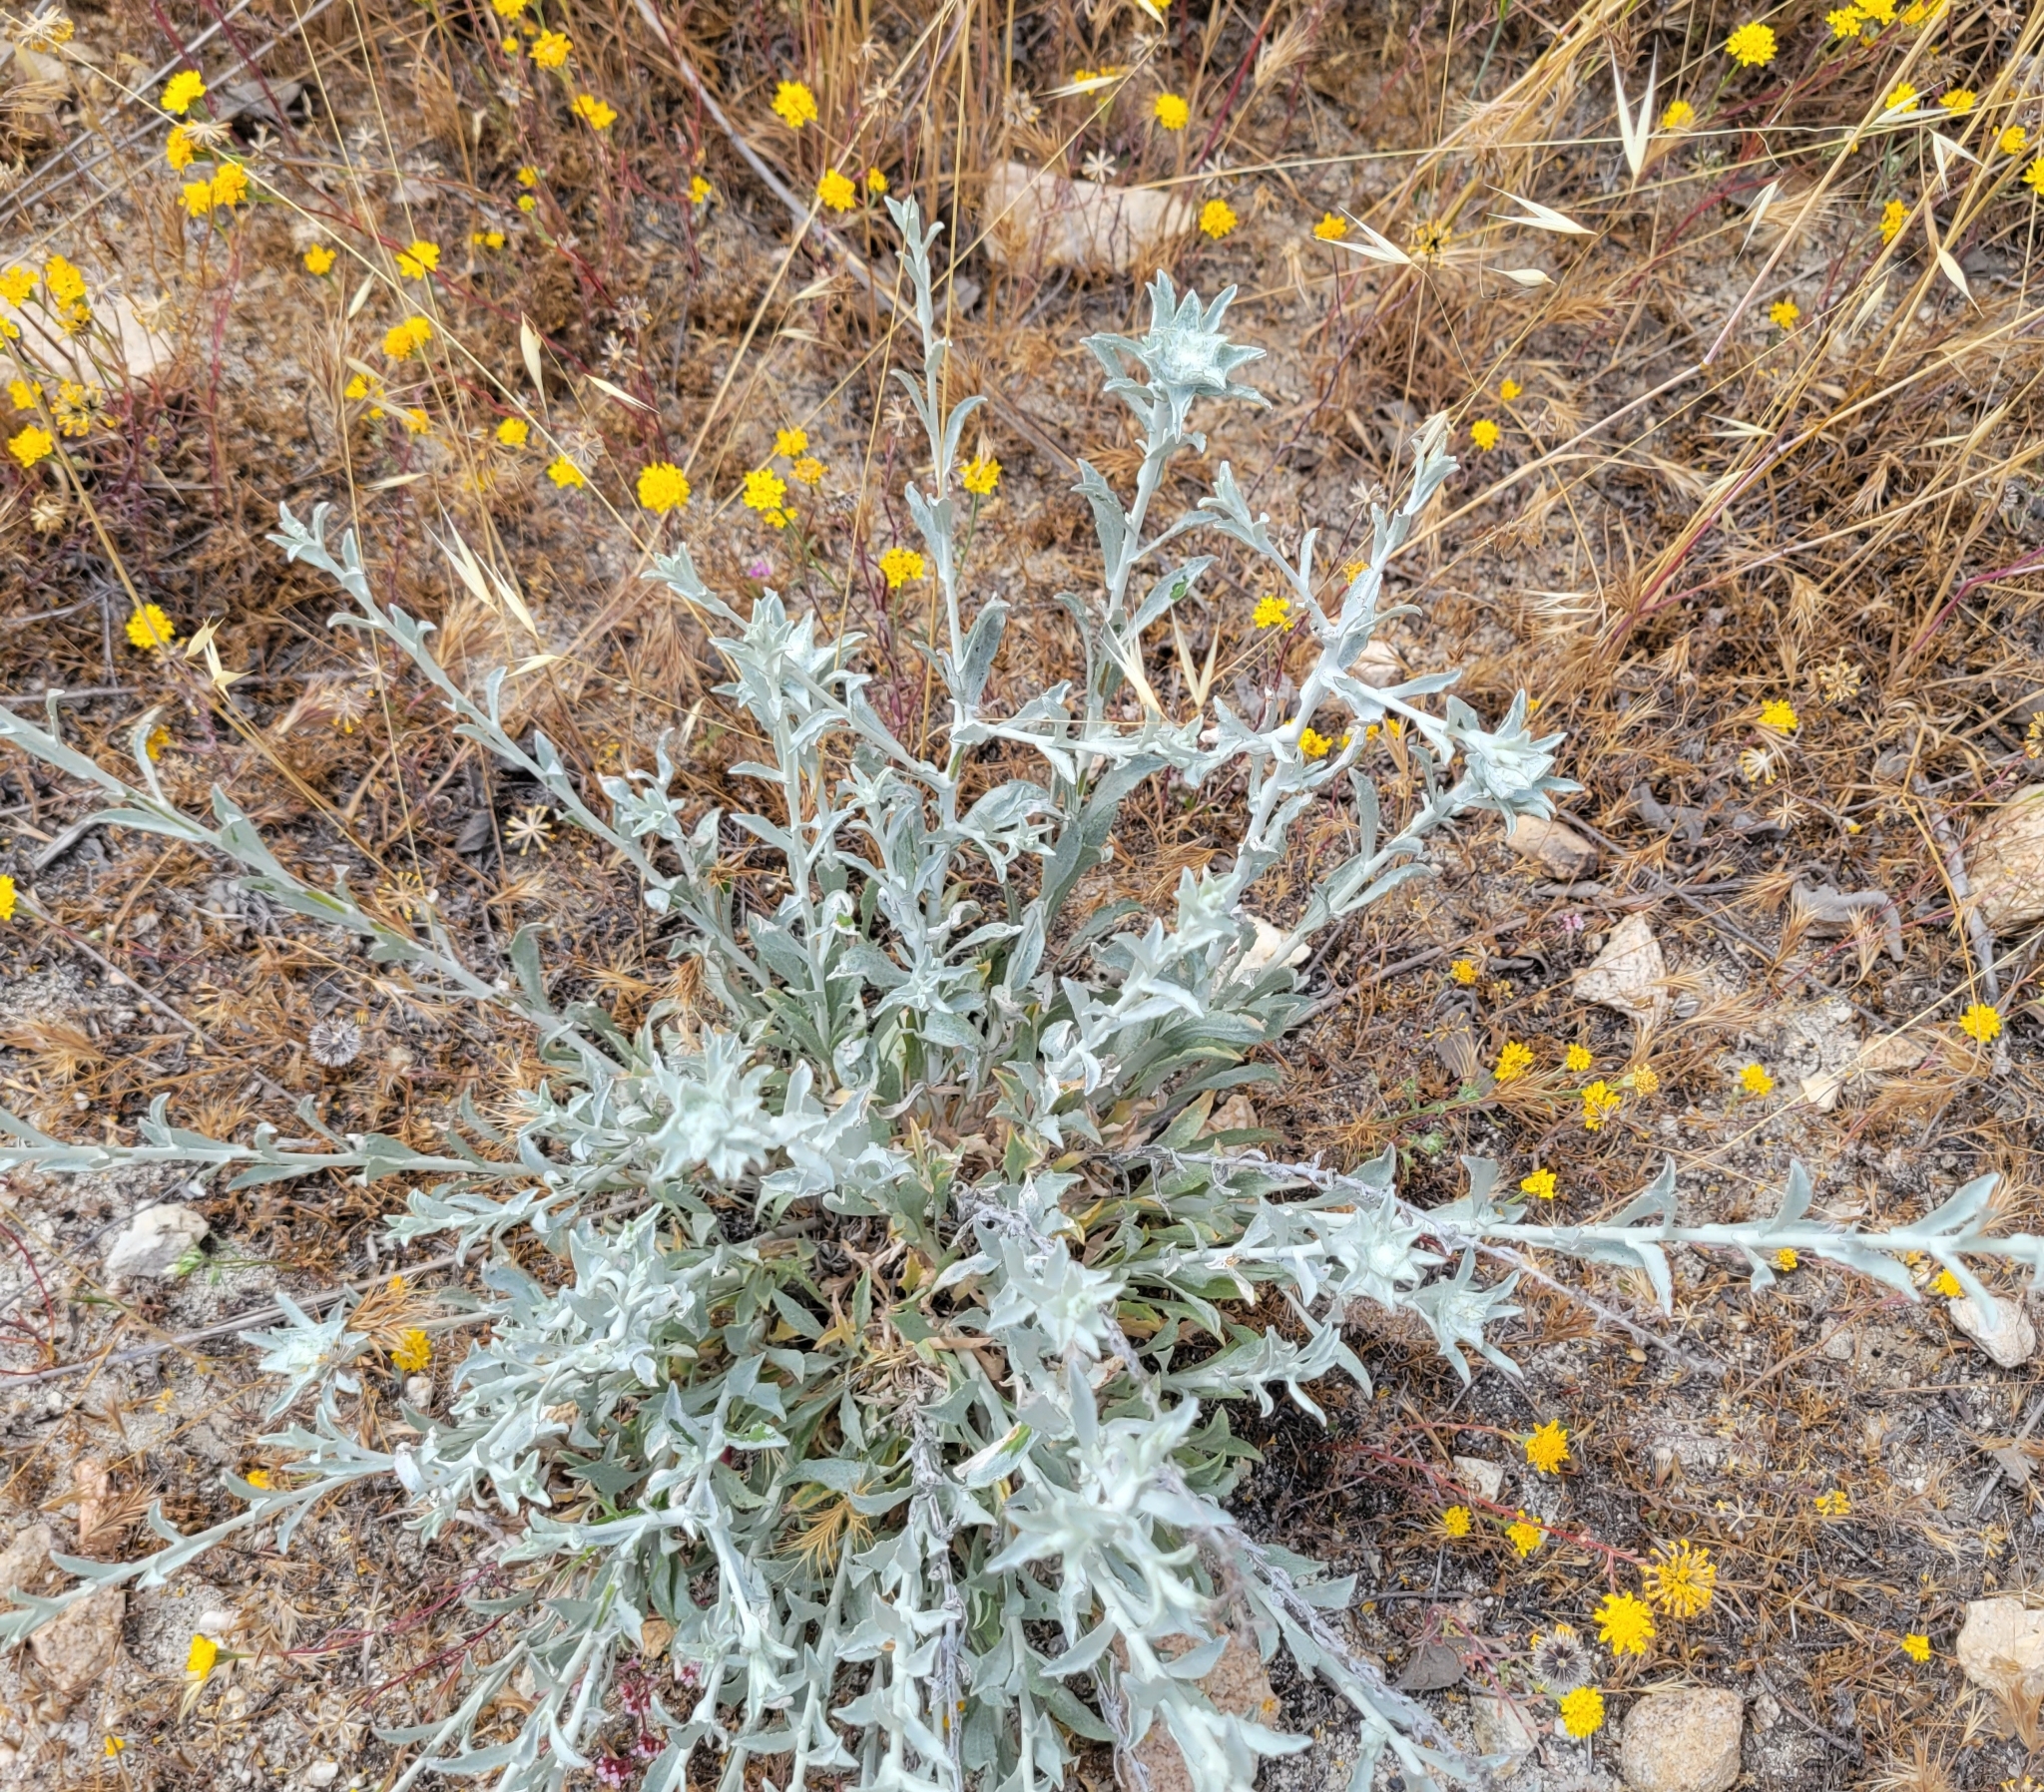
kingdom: Plantae
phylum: Tracheophyta
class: Magnoliopsida
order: Asterales
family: Asteraceae
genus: Corethrogyne
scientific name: Corethrogyne filaginifolia
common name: Sand-aster
